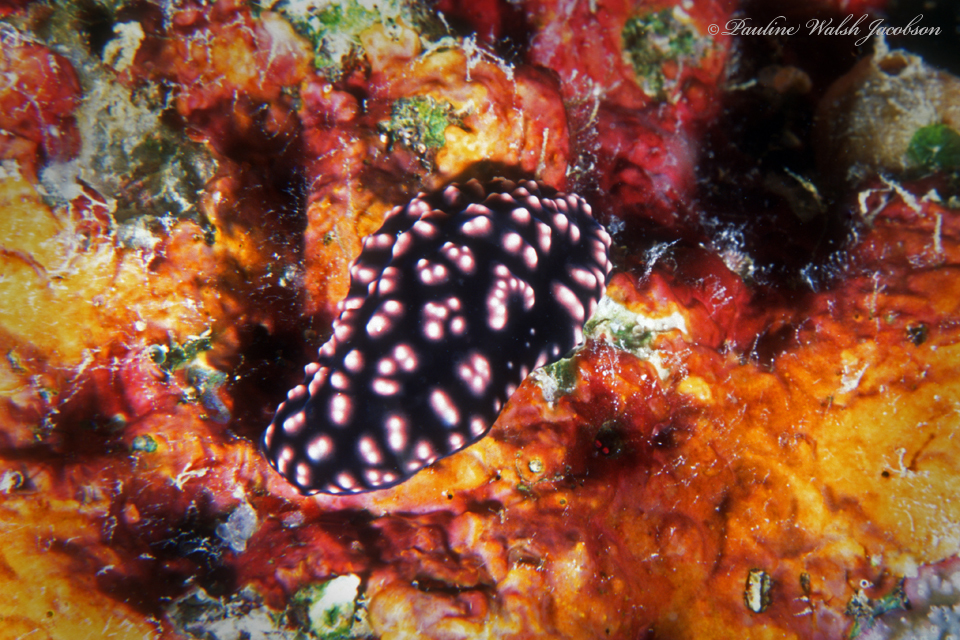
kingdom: Animalia
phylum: Mollusca
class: Gastropoda
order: Nudibranchia
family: Phyllidiidae
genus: Phyllidiella
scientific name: Phyllidiella nigra
